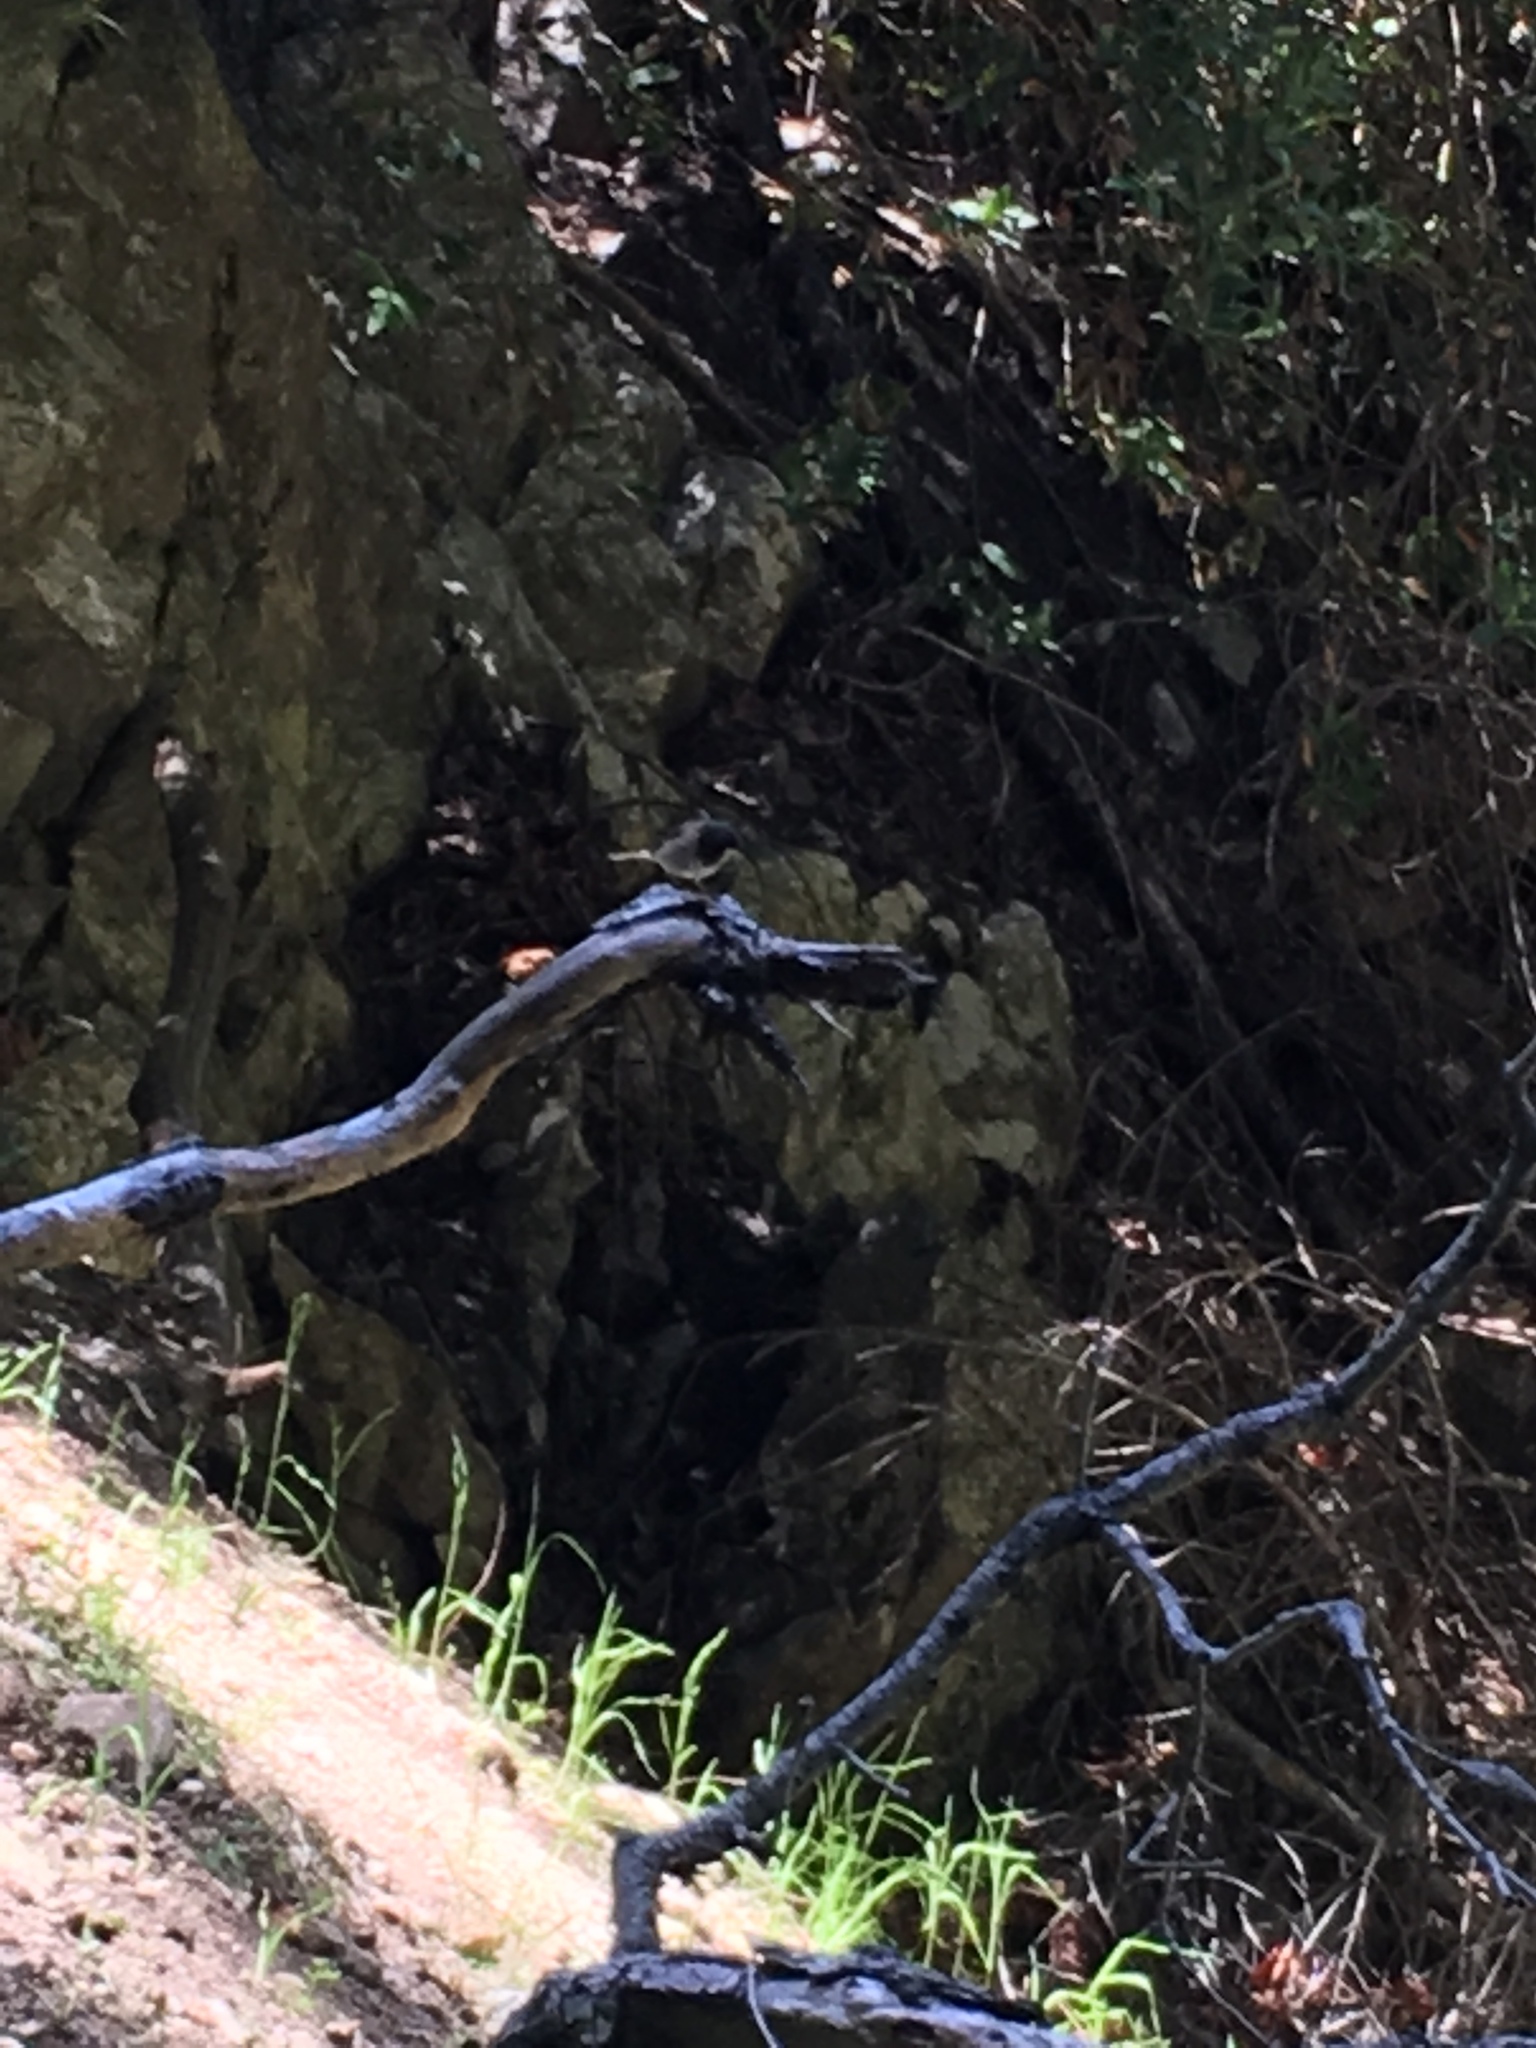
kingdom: Animalia
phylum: Chordata
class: Aves
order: Passeriformes
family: Passerellidae
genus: Junco
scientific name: Junco hyemalis
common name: Dark-eyed junco
